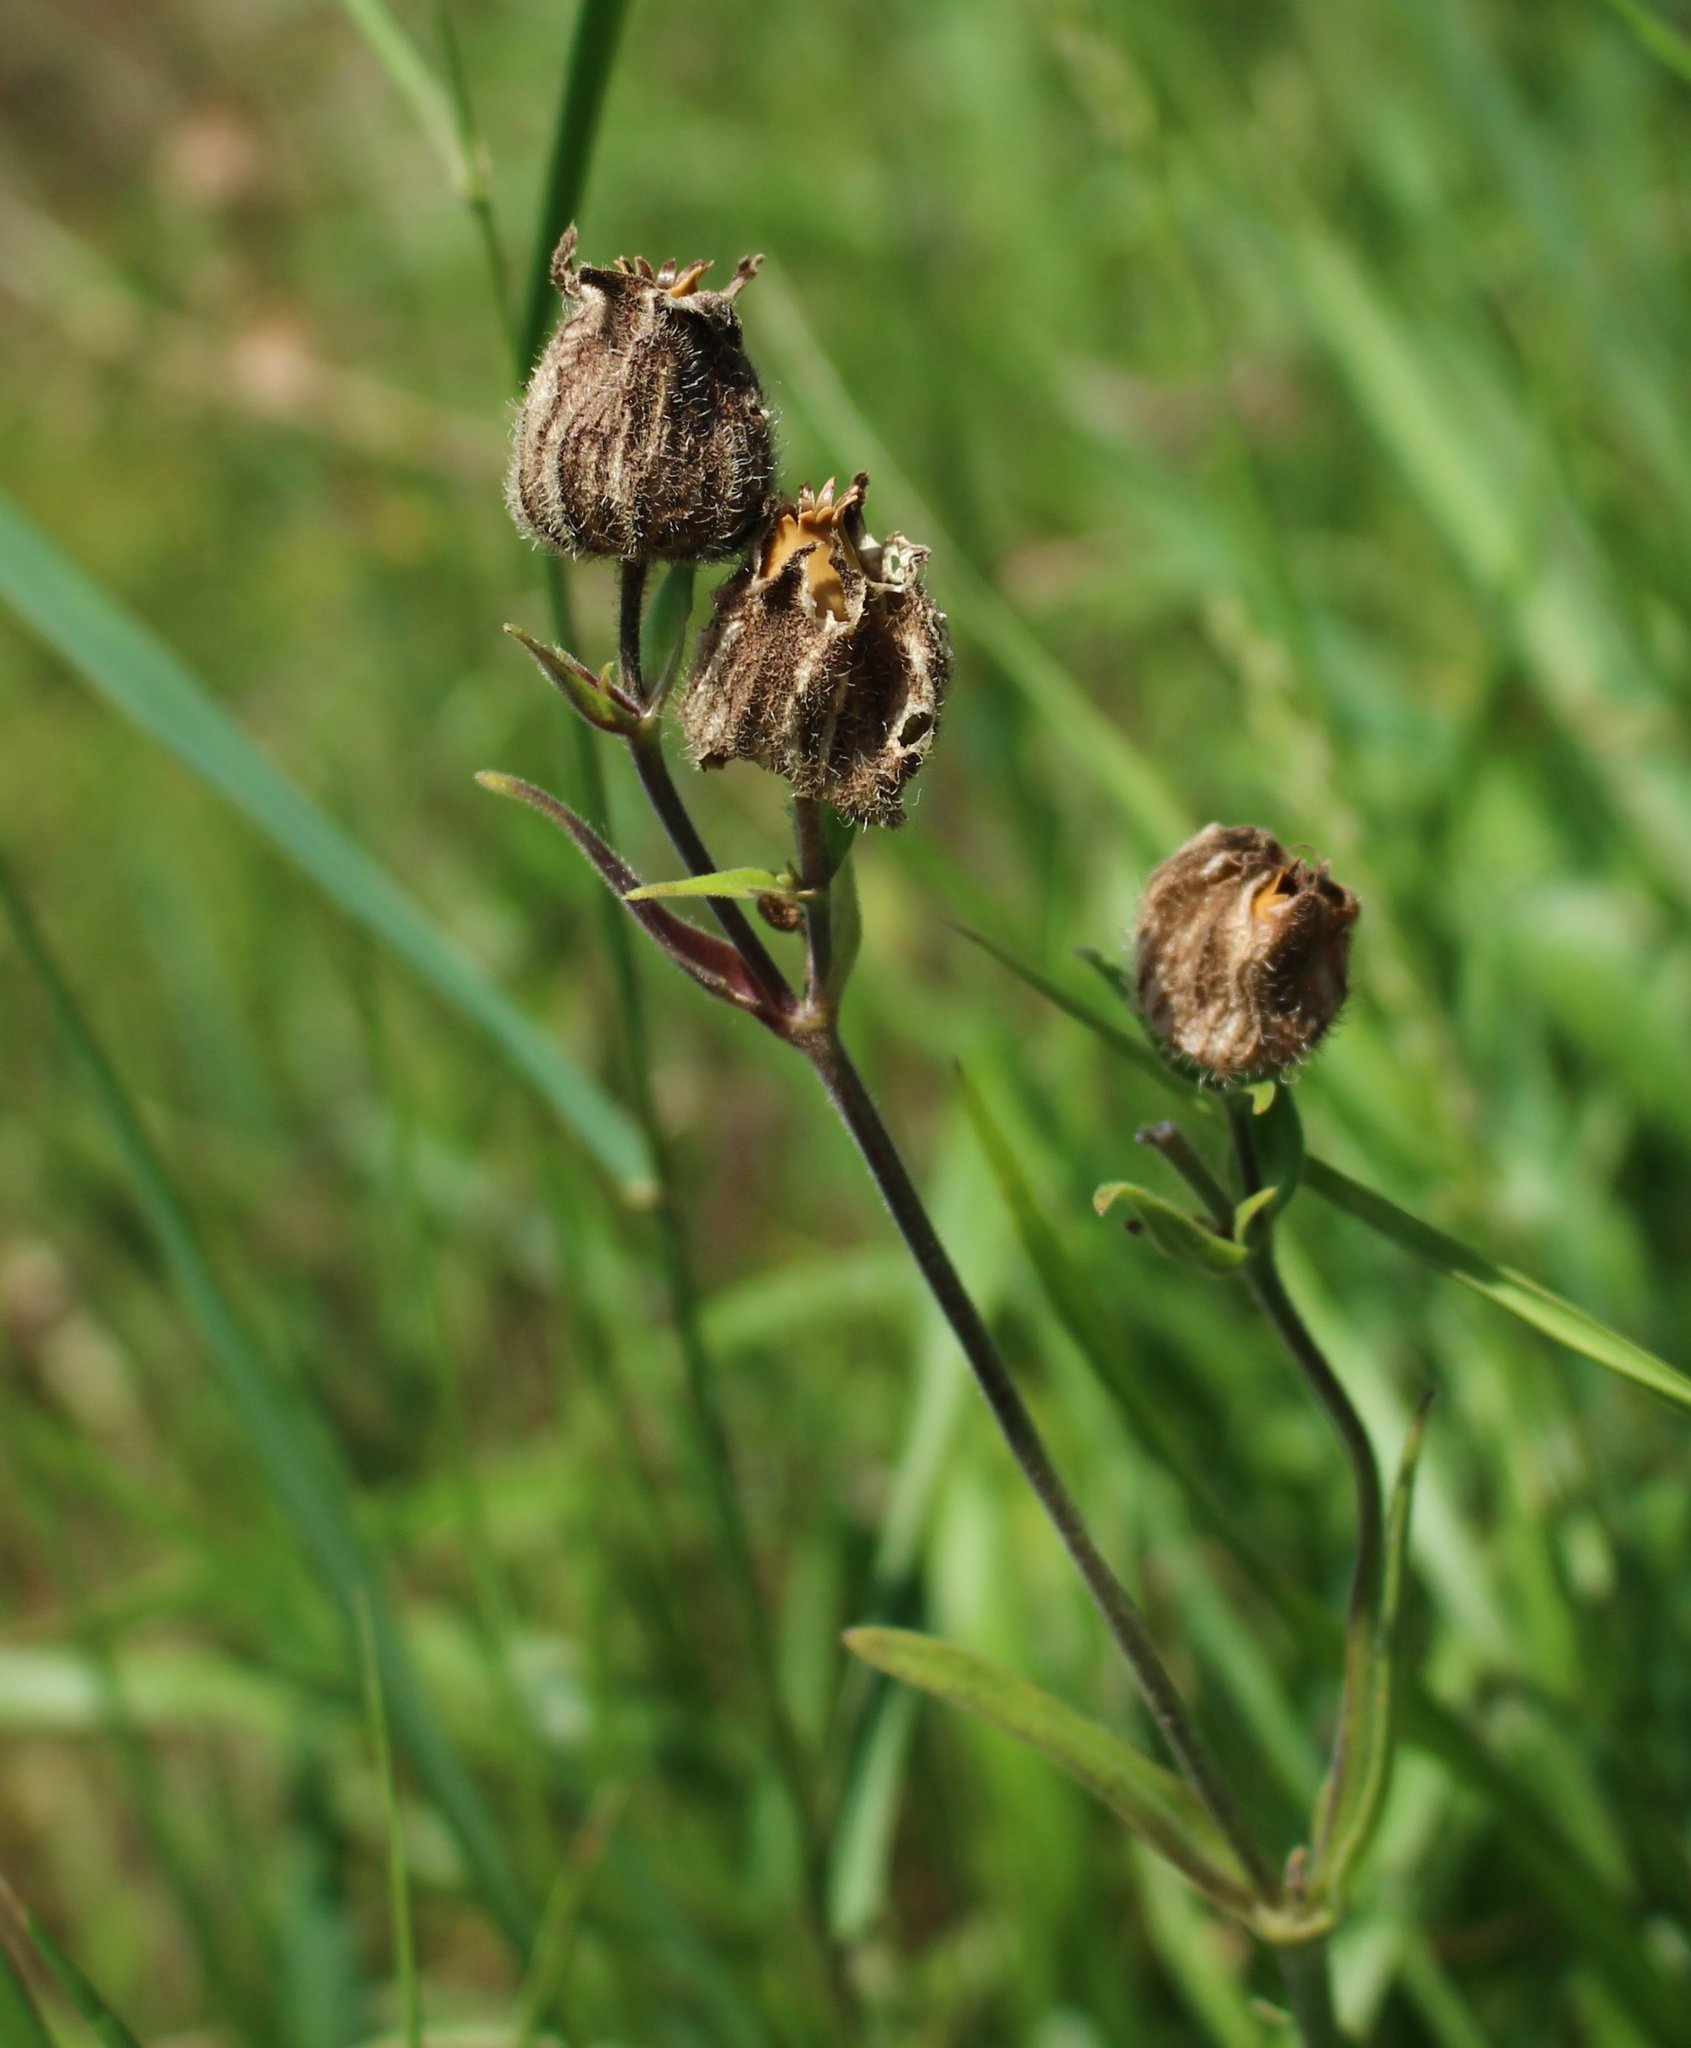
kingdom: Plantae
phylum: Tracheophyta
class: Magnoliopsida
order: Caryophyllales
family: Caryophyllaceae
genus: Silene
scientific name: Silene latifolia
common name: White campion
